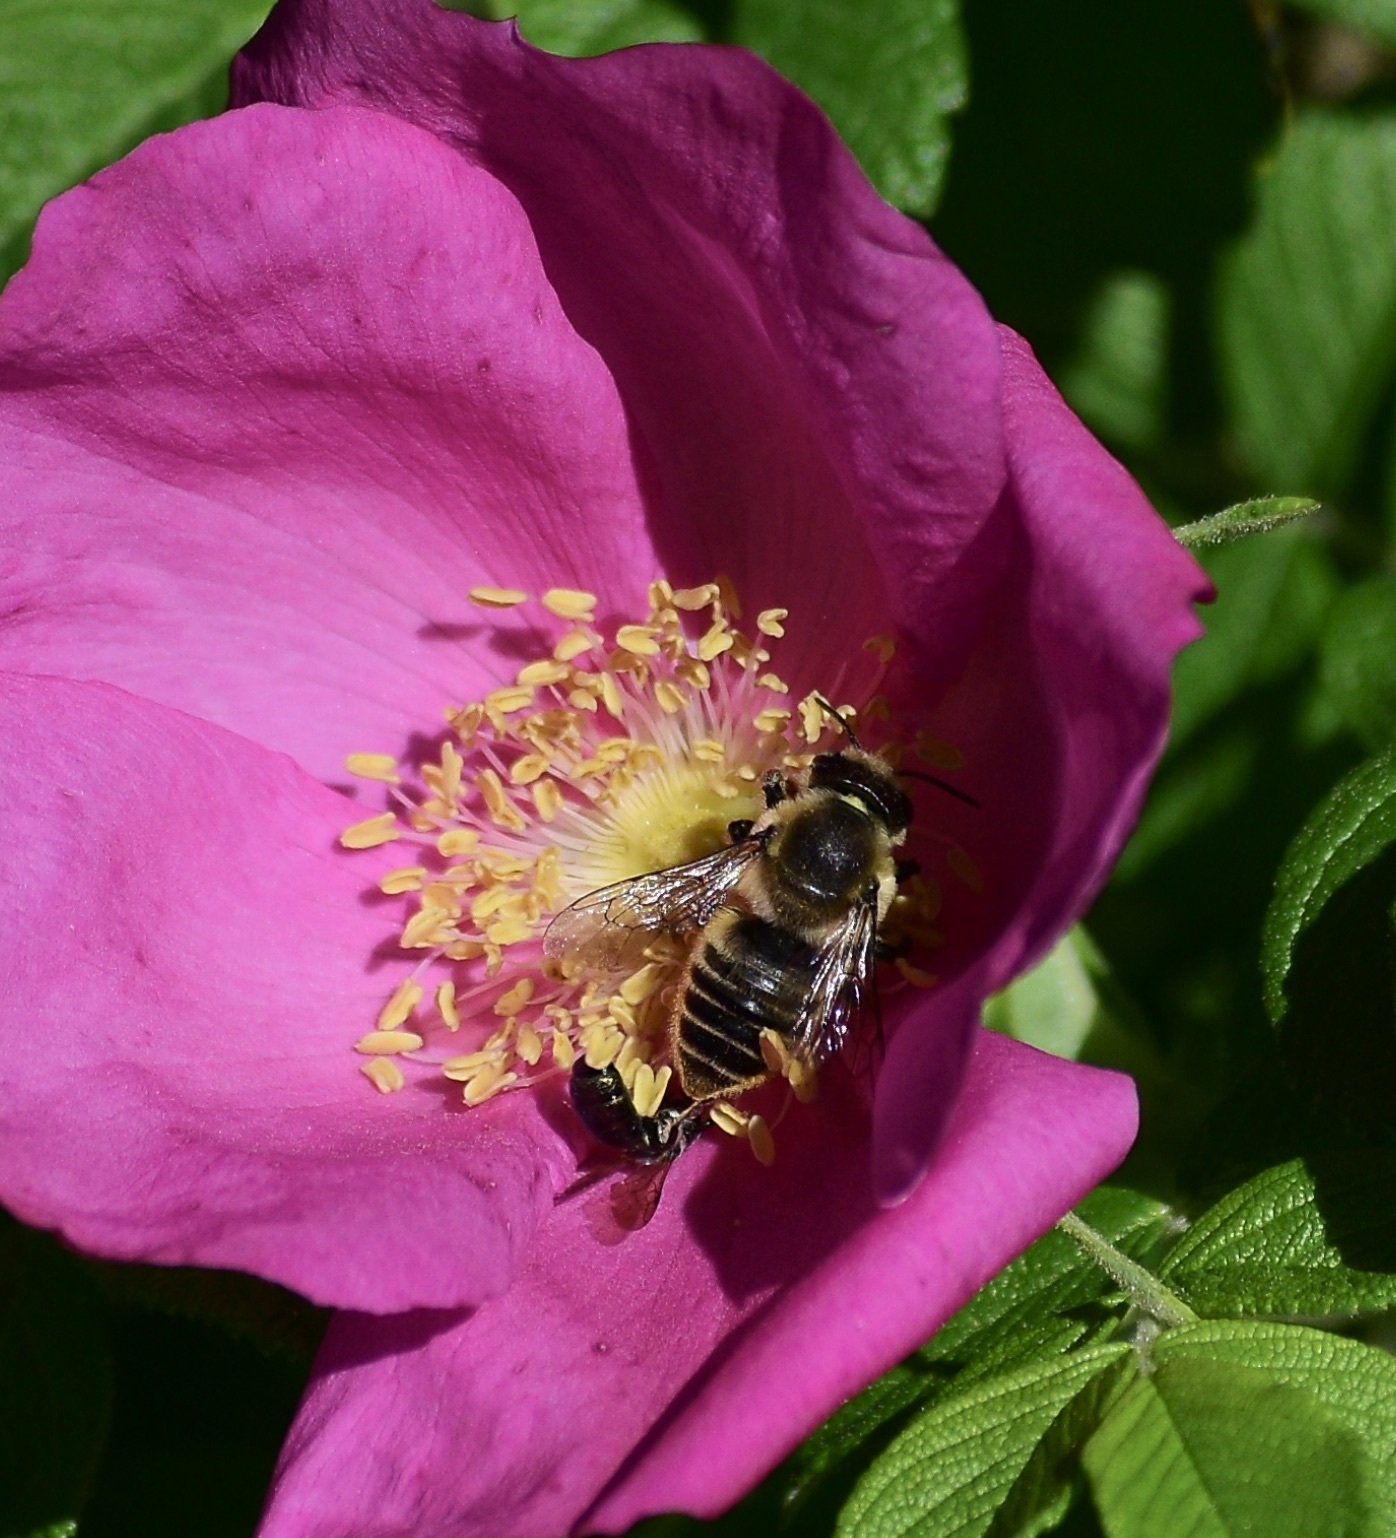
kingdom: Animalia
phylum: Arthropoda
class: Insecta
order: Hymenoptera
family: Megachilidae
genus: Megachile
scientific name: Megachile latimanus
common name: Leafcutting bee
